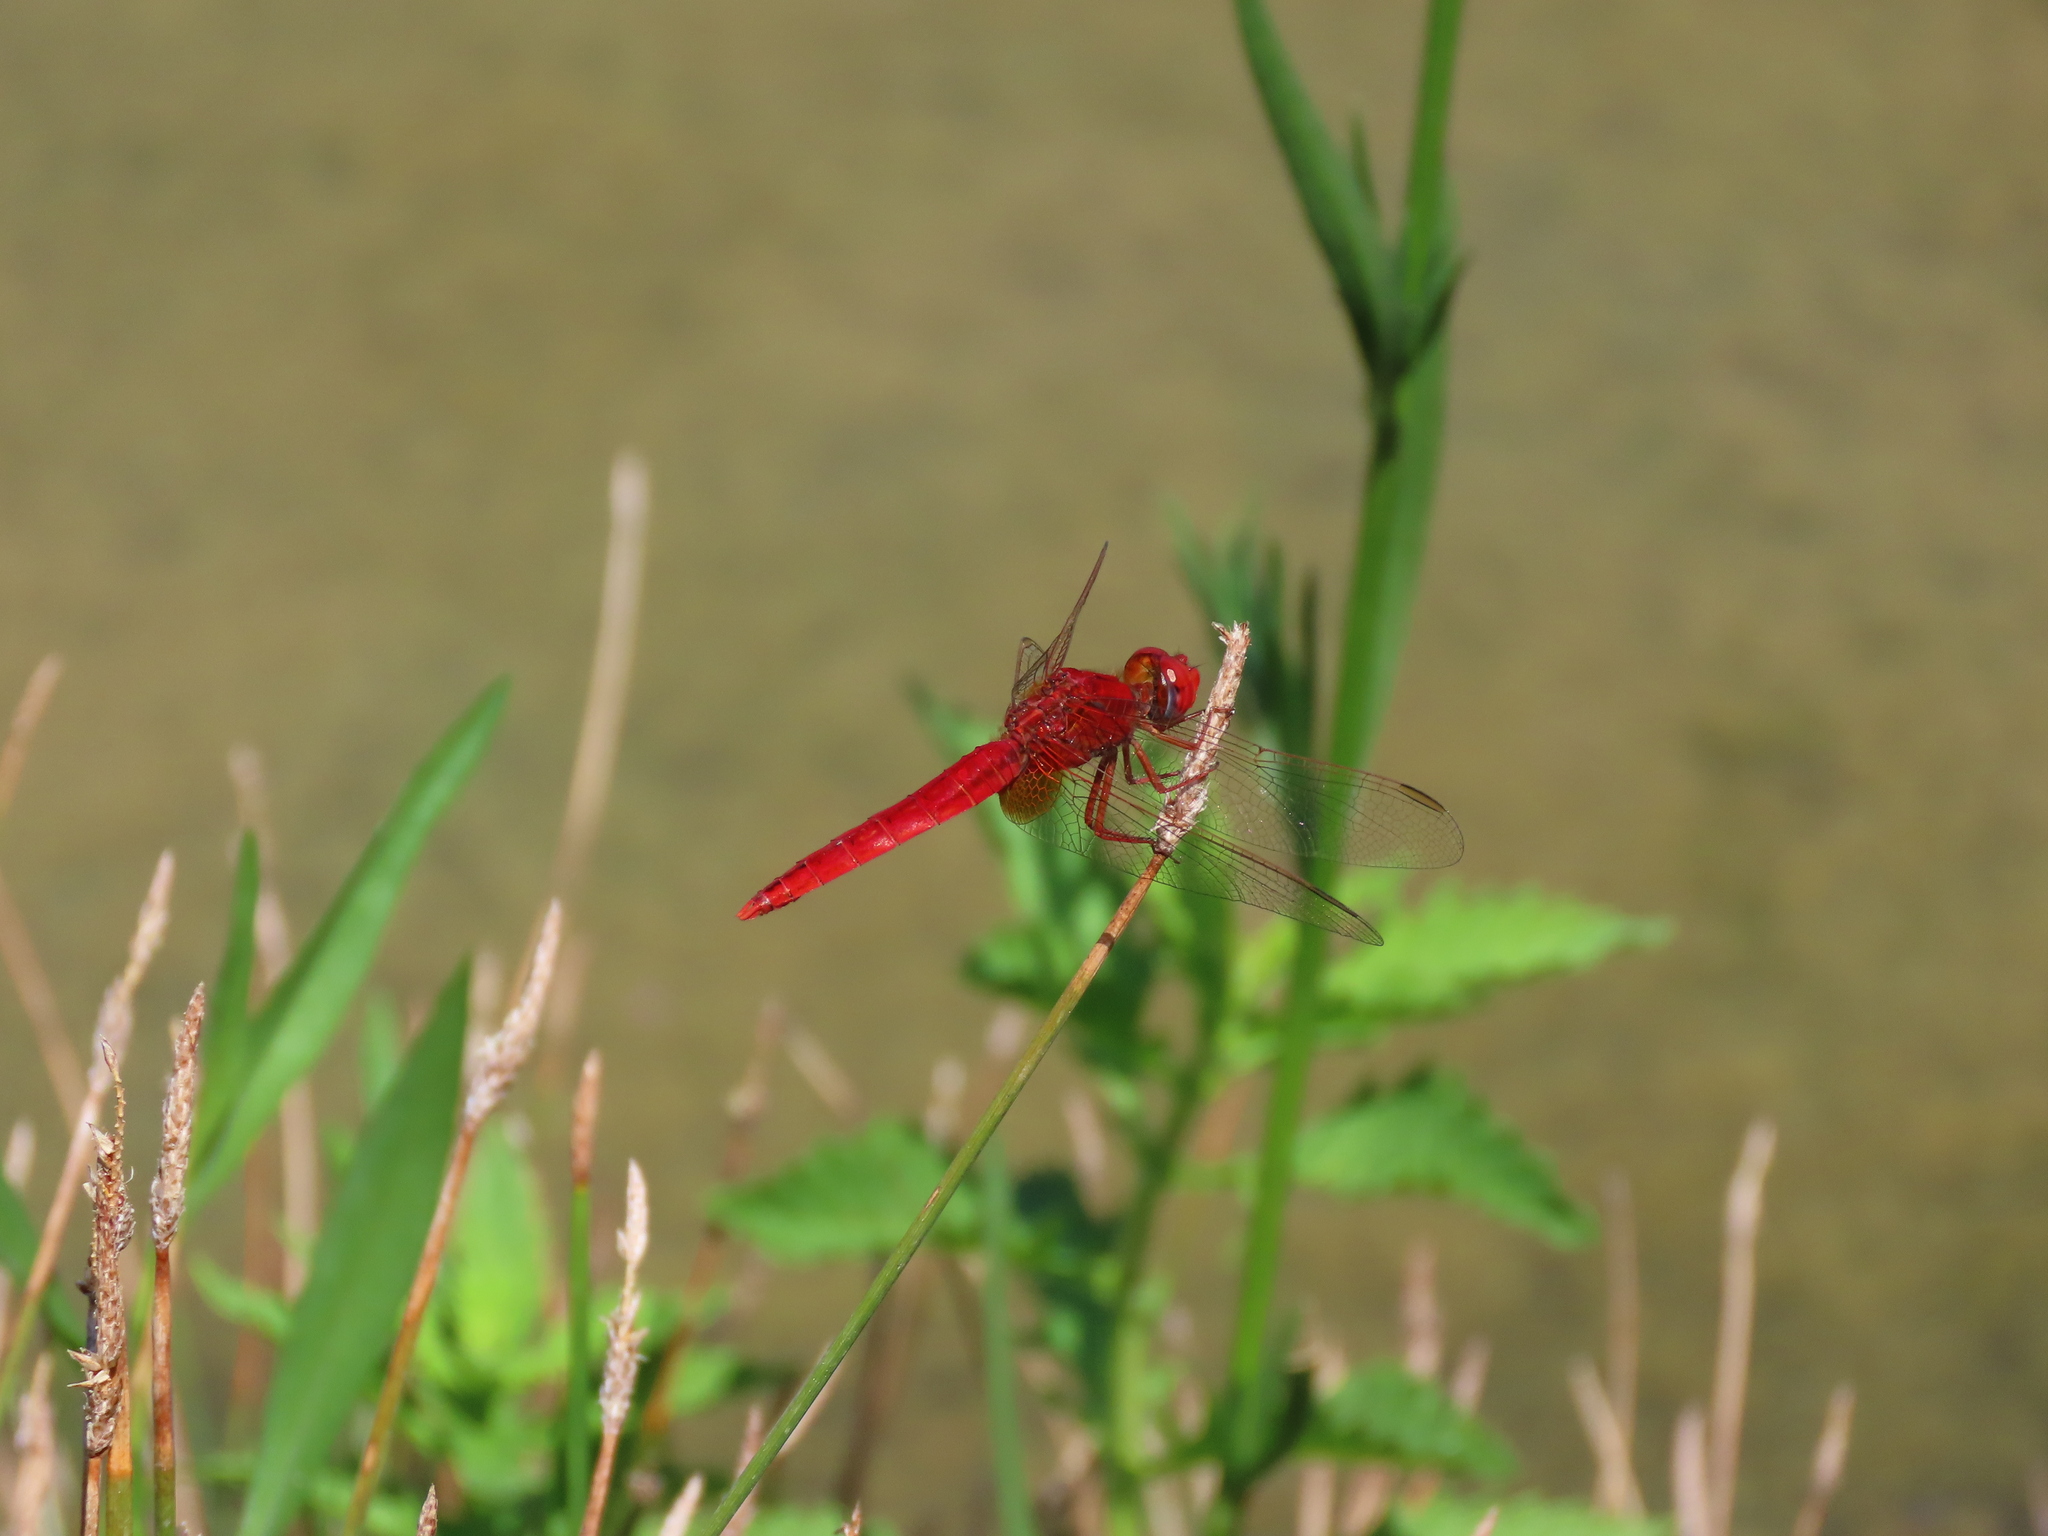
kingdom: Animalia
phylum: Arthropoda
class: Insecta
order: Odonata
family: Libellulidae
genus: Crocothemis
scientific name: Crocothemis erythraea
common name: Scarlet dragonfly
